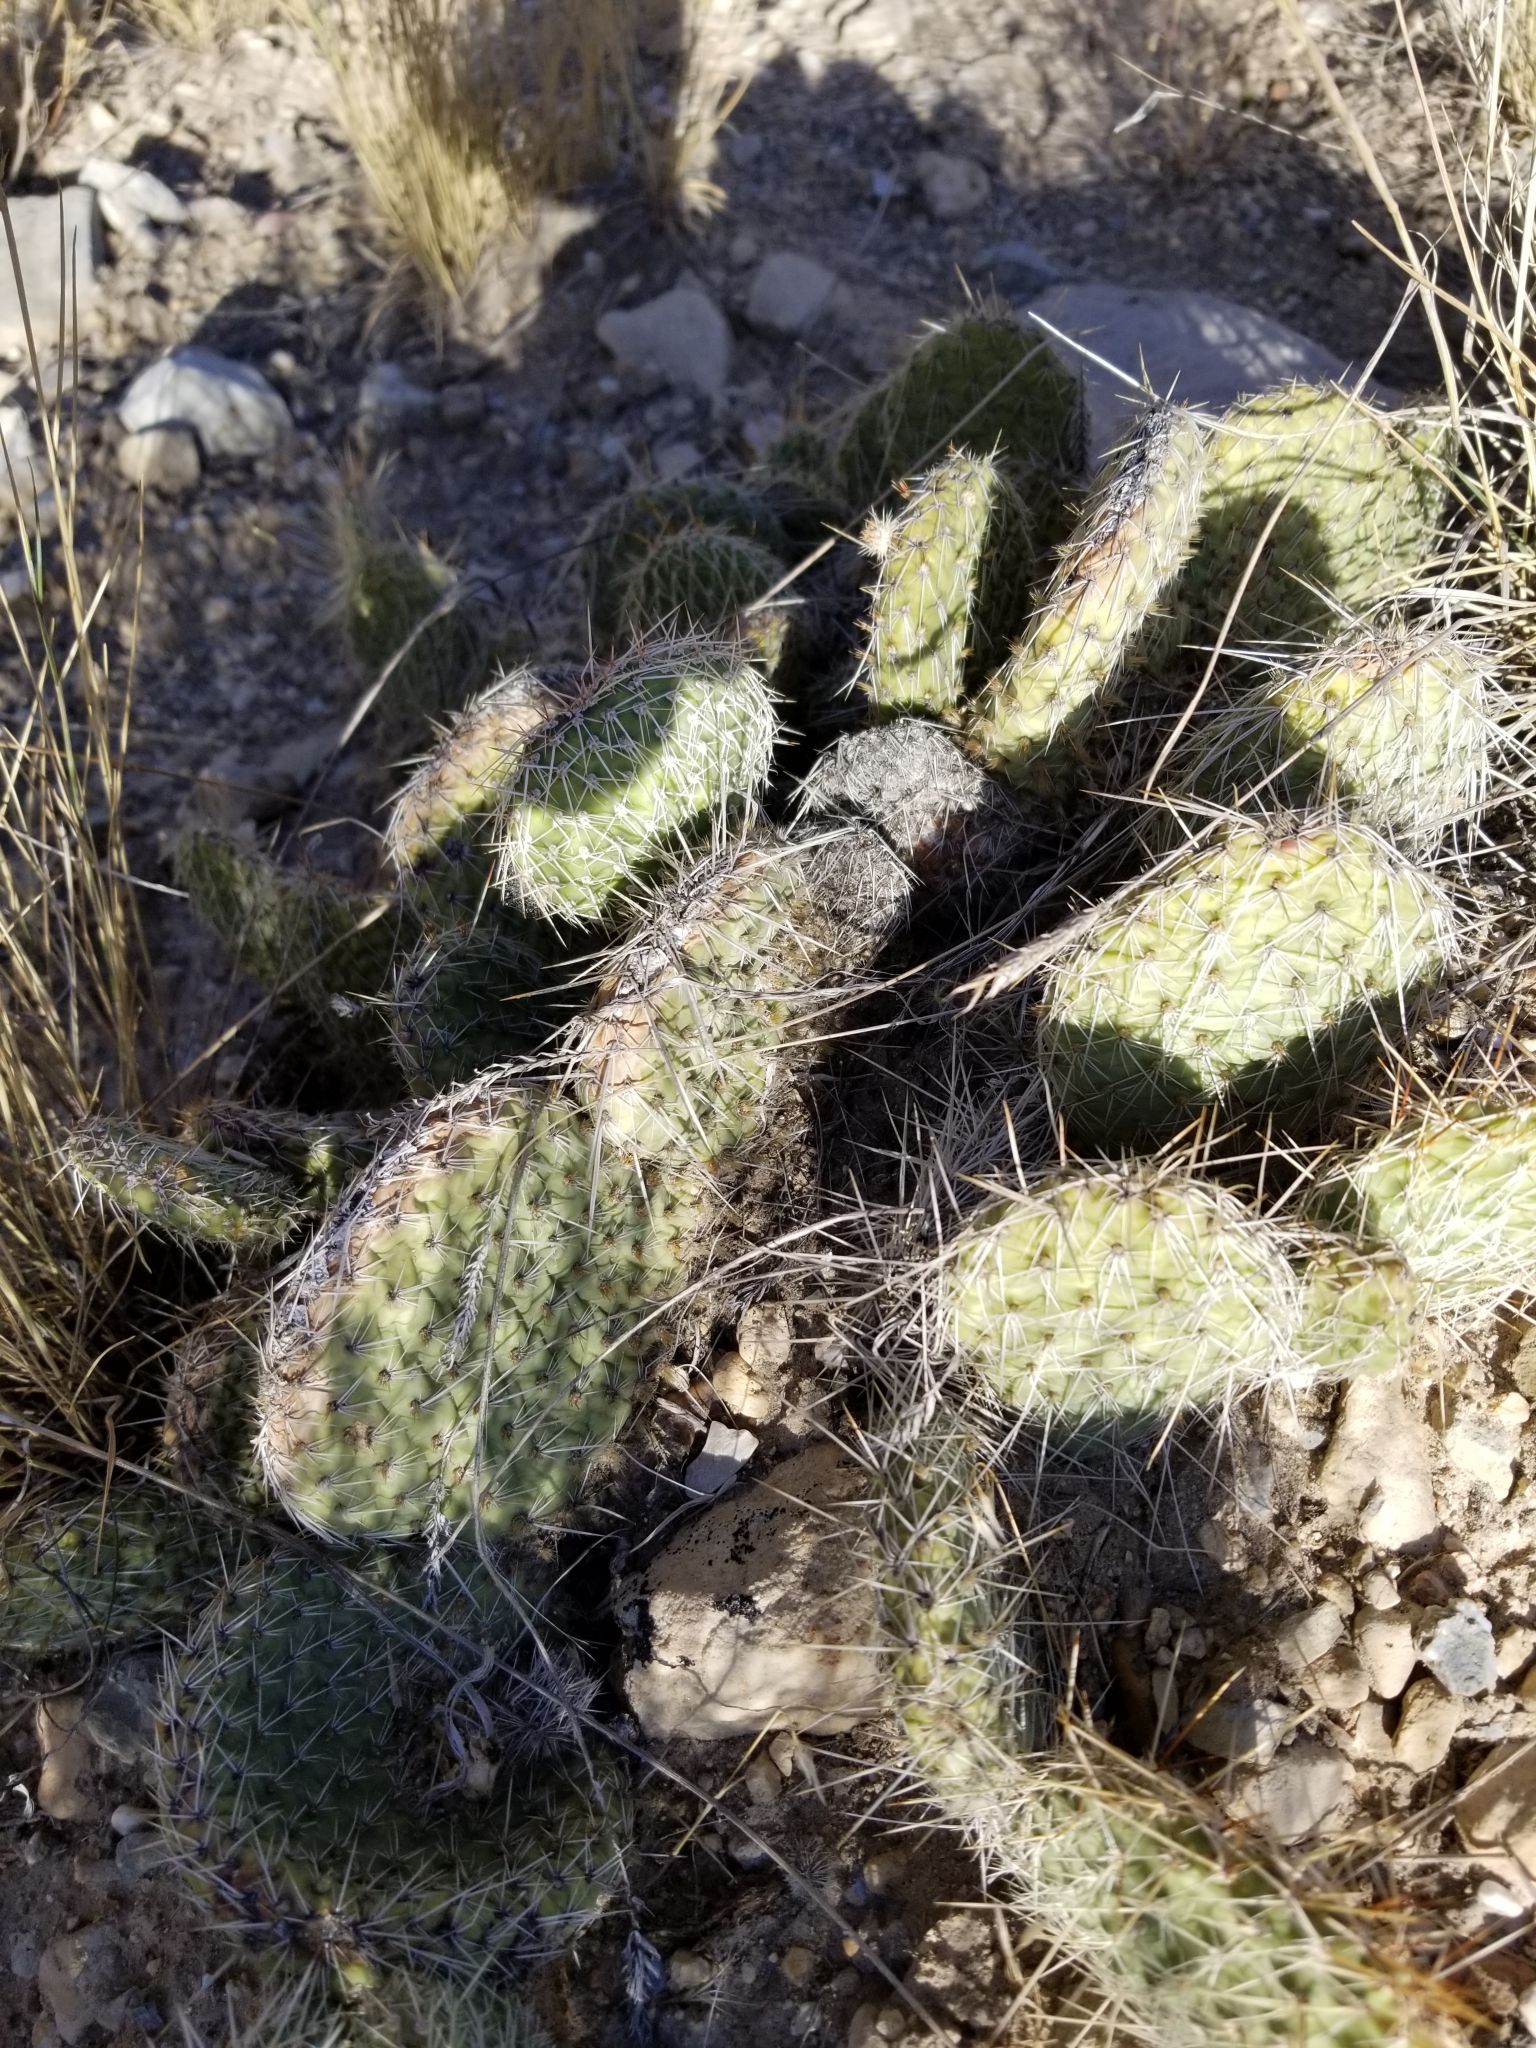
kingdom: Plantae
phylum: Tracheophyta
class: Magnoliopsida
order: Caryophyllales
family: Cactaceae
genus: Opuntia
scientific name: Opuntia polyacantha
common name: Plains prickly-pear
